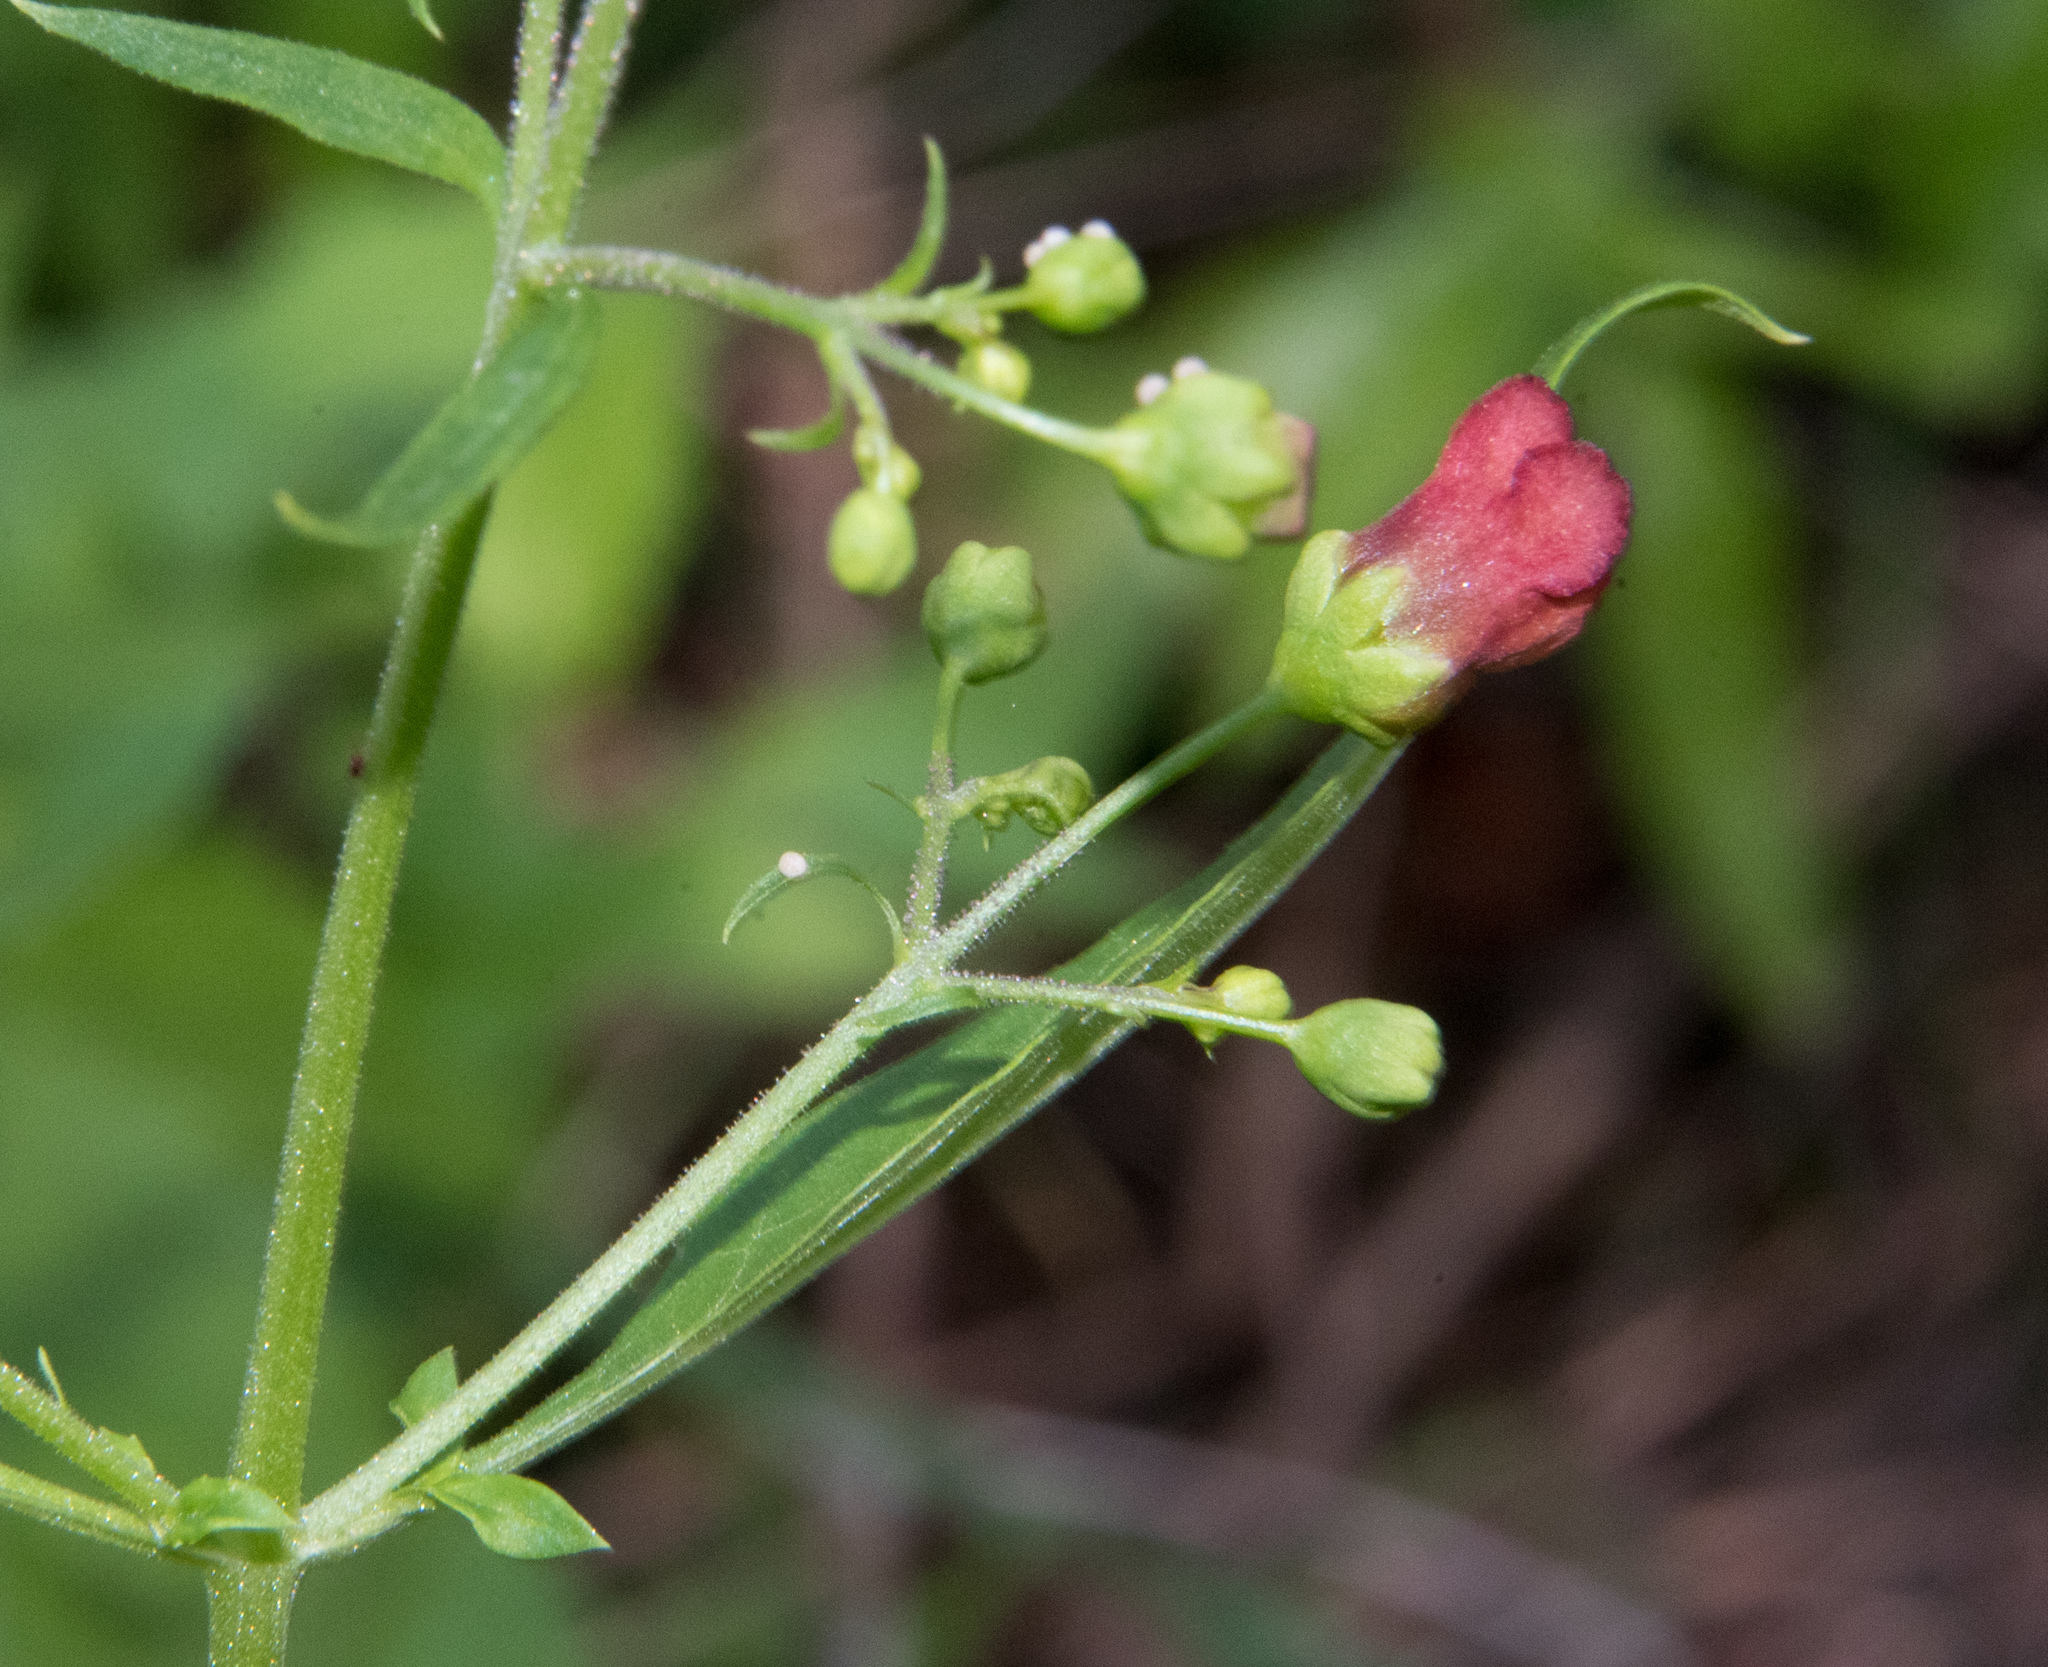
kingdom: Plantae
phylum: Tracheophyta
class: Magnoliopsida
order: Lamiales
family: Scrophulariaceae
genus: Scrophularia
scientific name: Scrophularia parviflora
